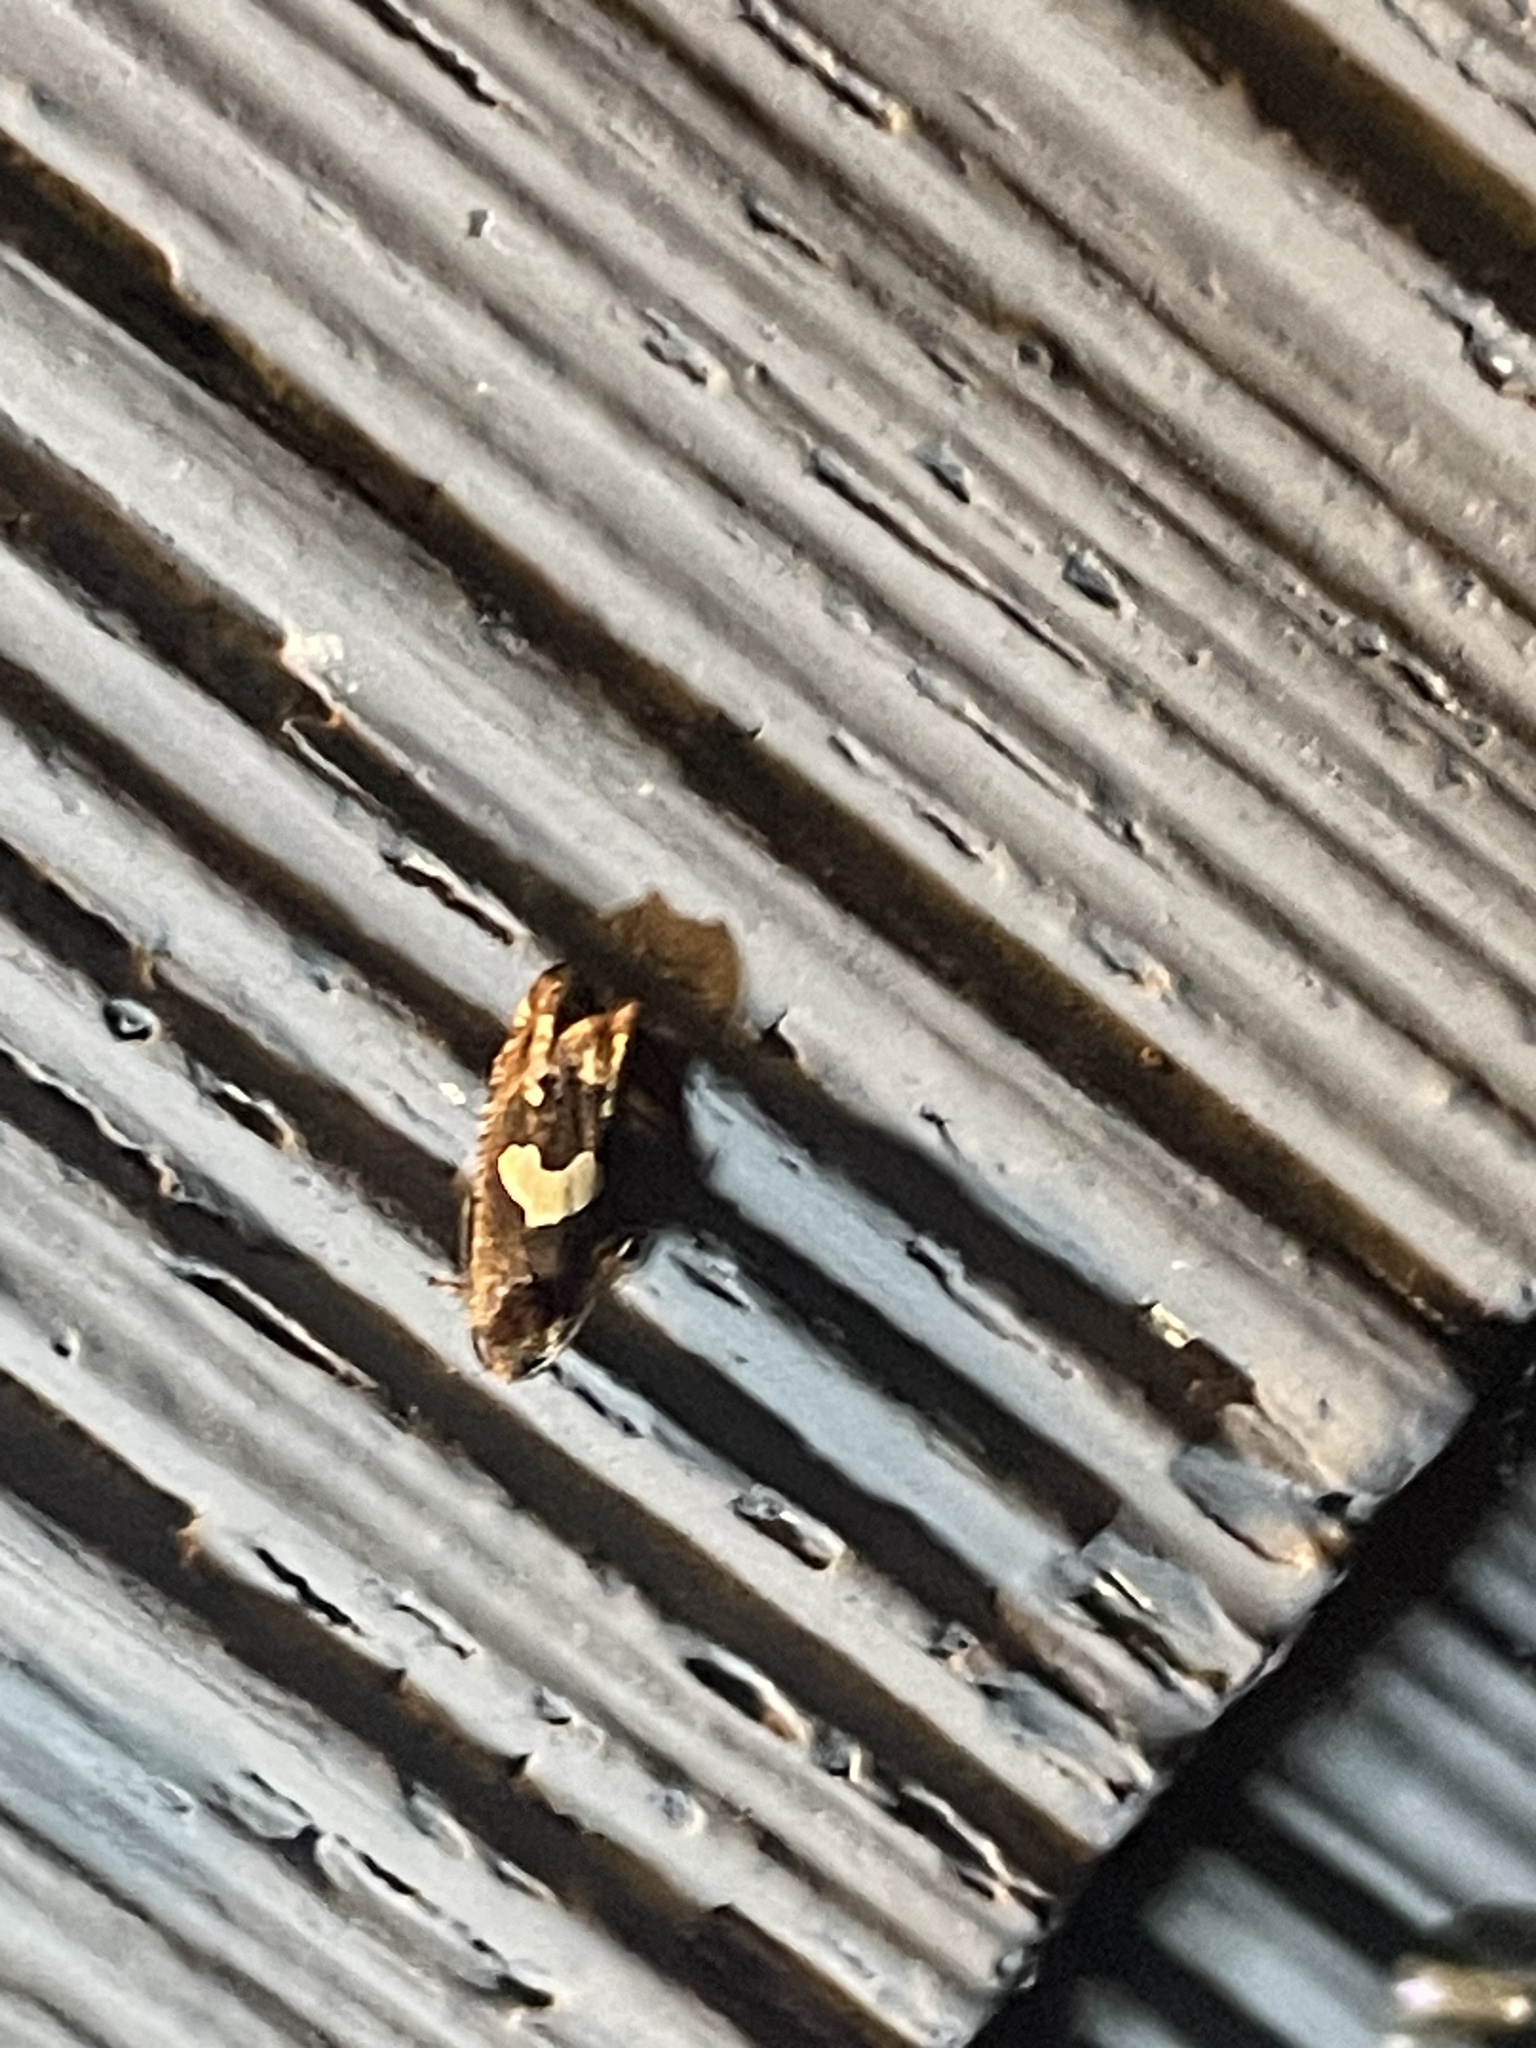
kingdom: Animalia
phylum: Arthropoda
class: Insecta
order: Lepidoptera
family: Tortricidae
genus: Epiblema
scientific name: Epiblema otiosana
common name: Bidens borer moth
